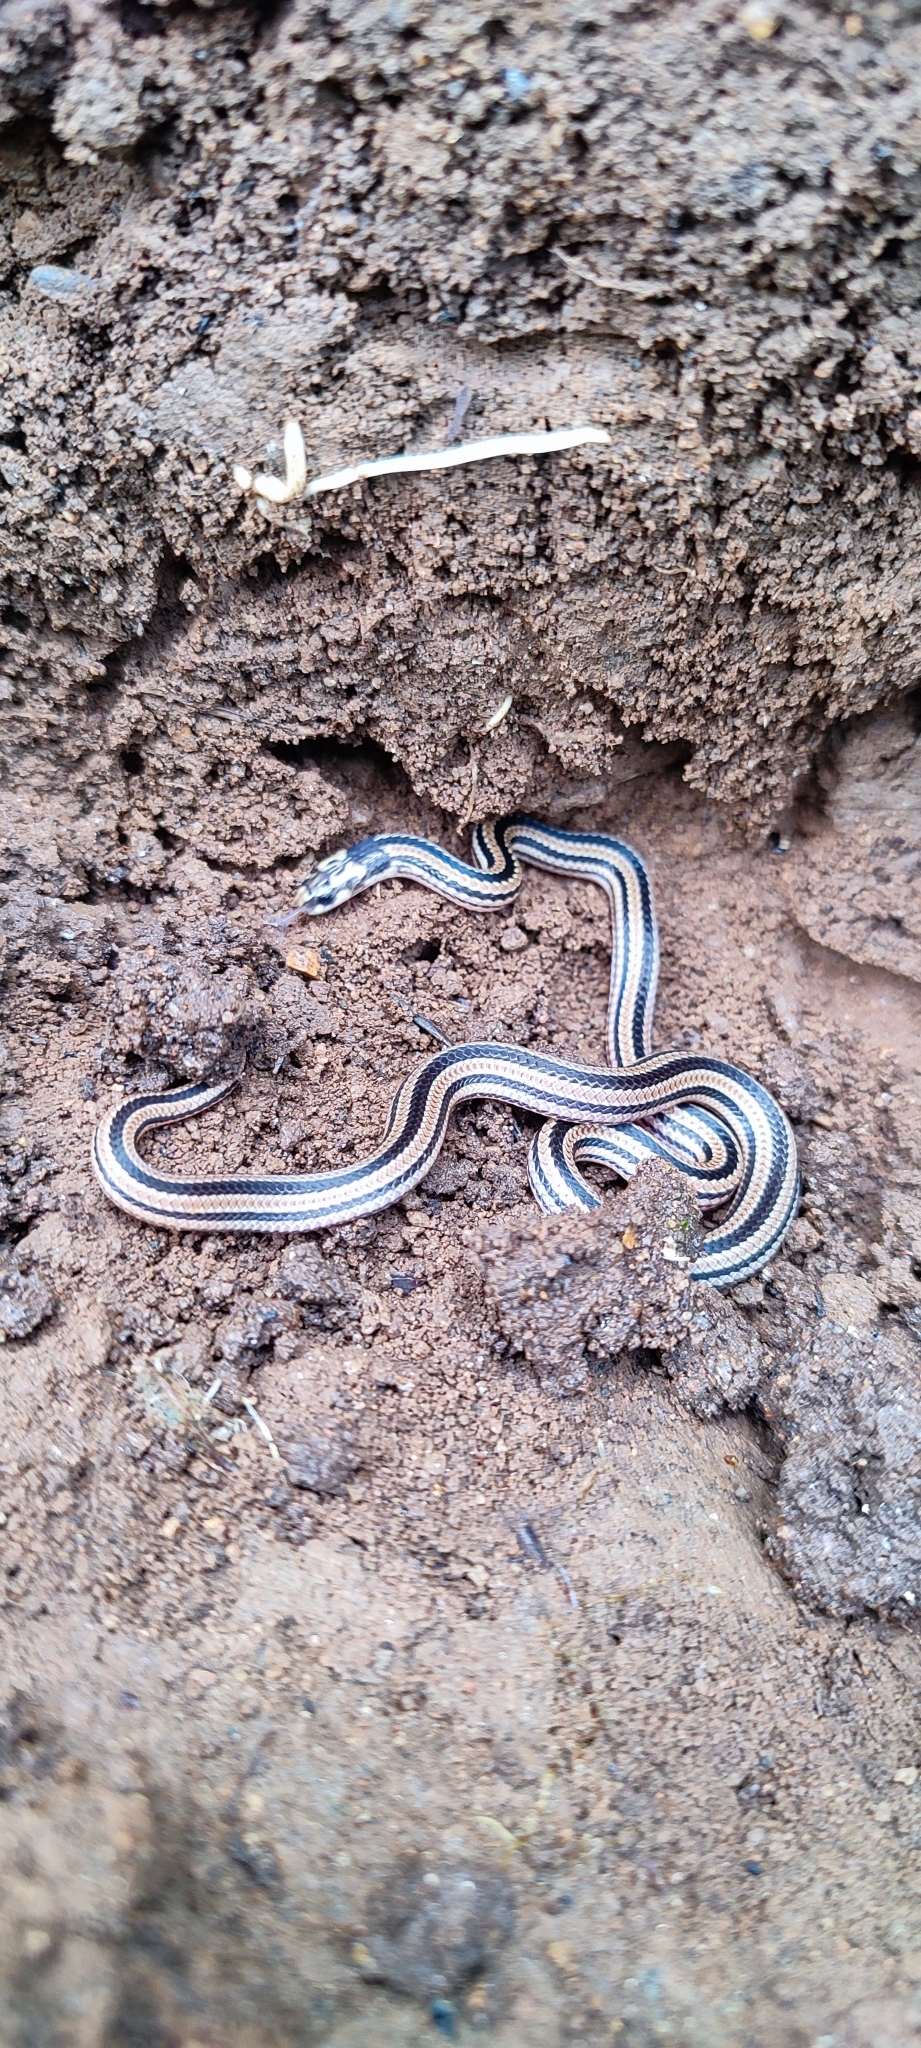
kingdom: Animalia
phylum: Chordata
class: Squamata
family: Elapidae
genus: Calliophis
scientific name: Calliophis nigrescens
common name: Black coral snake
